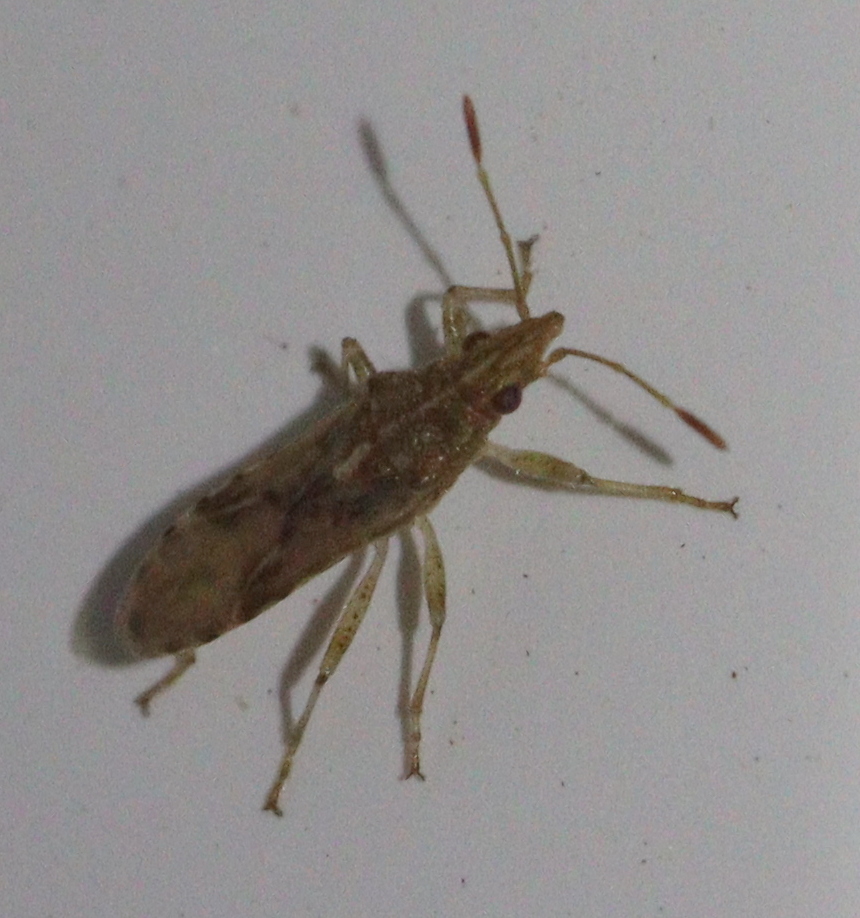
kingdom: Animalia
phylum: Arthropoda
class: Insecta
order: Hemiptera
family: Lygaeidae
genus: Belonochilus
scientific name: Belonochilus numenius
